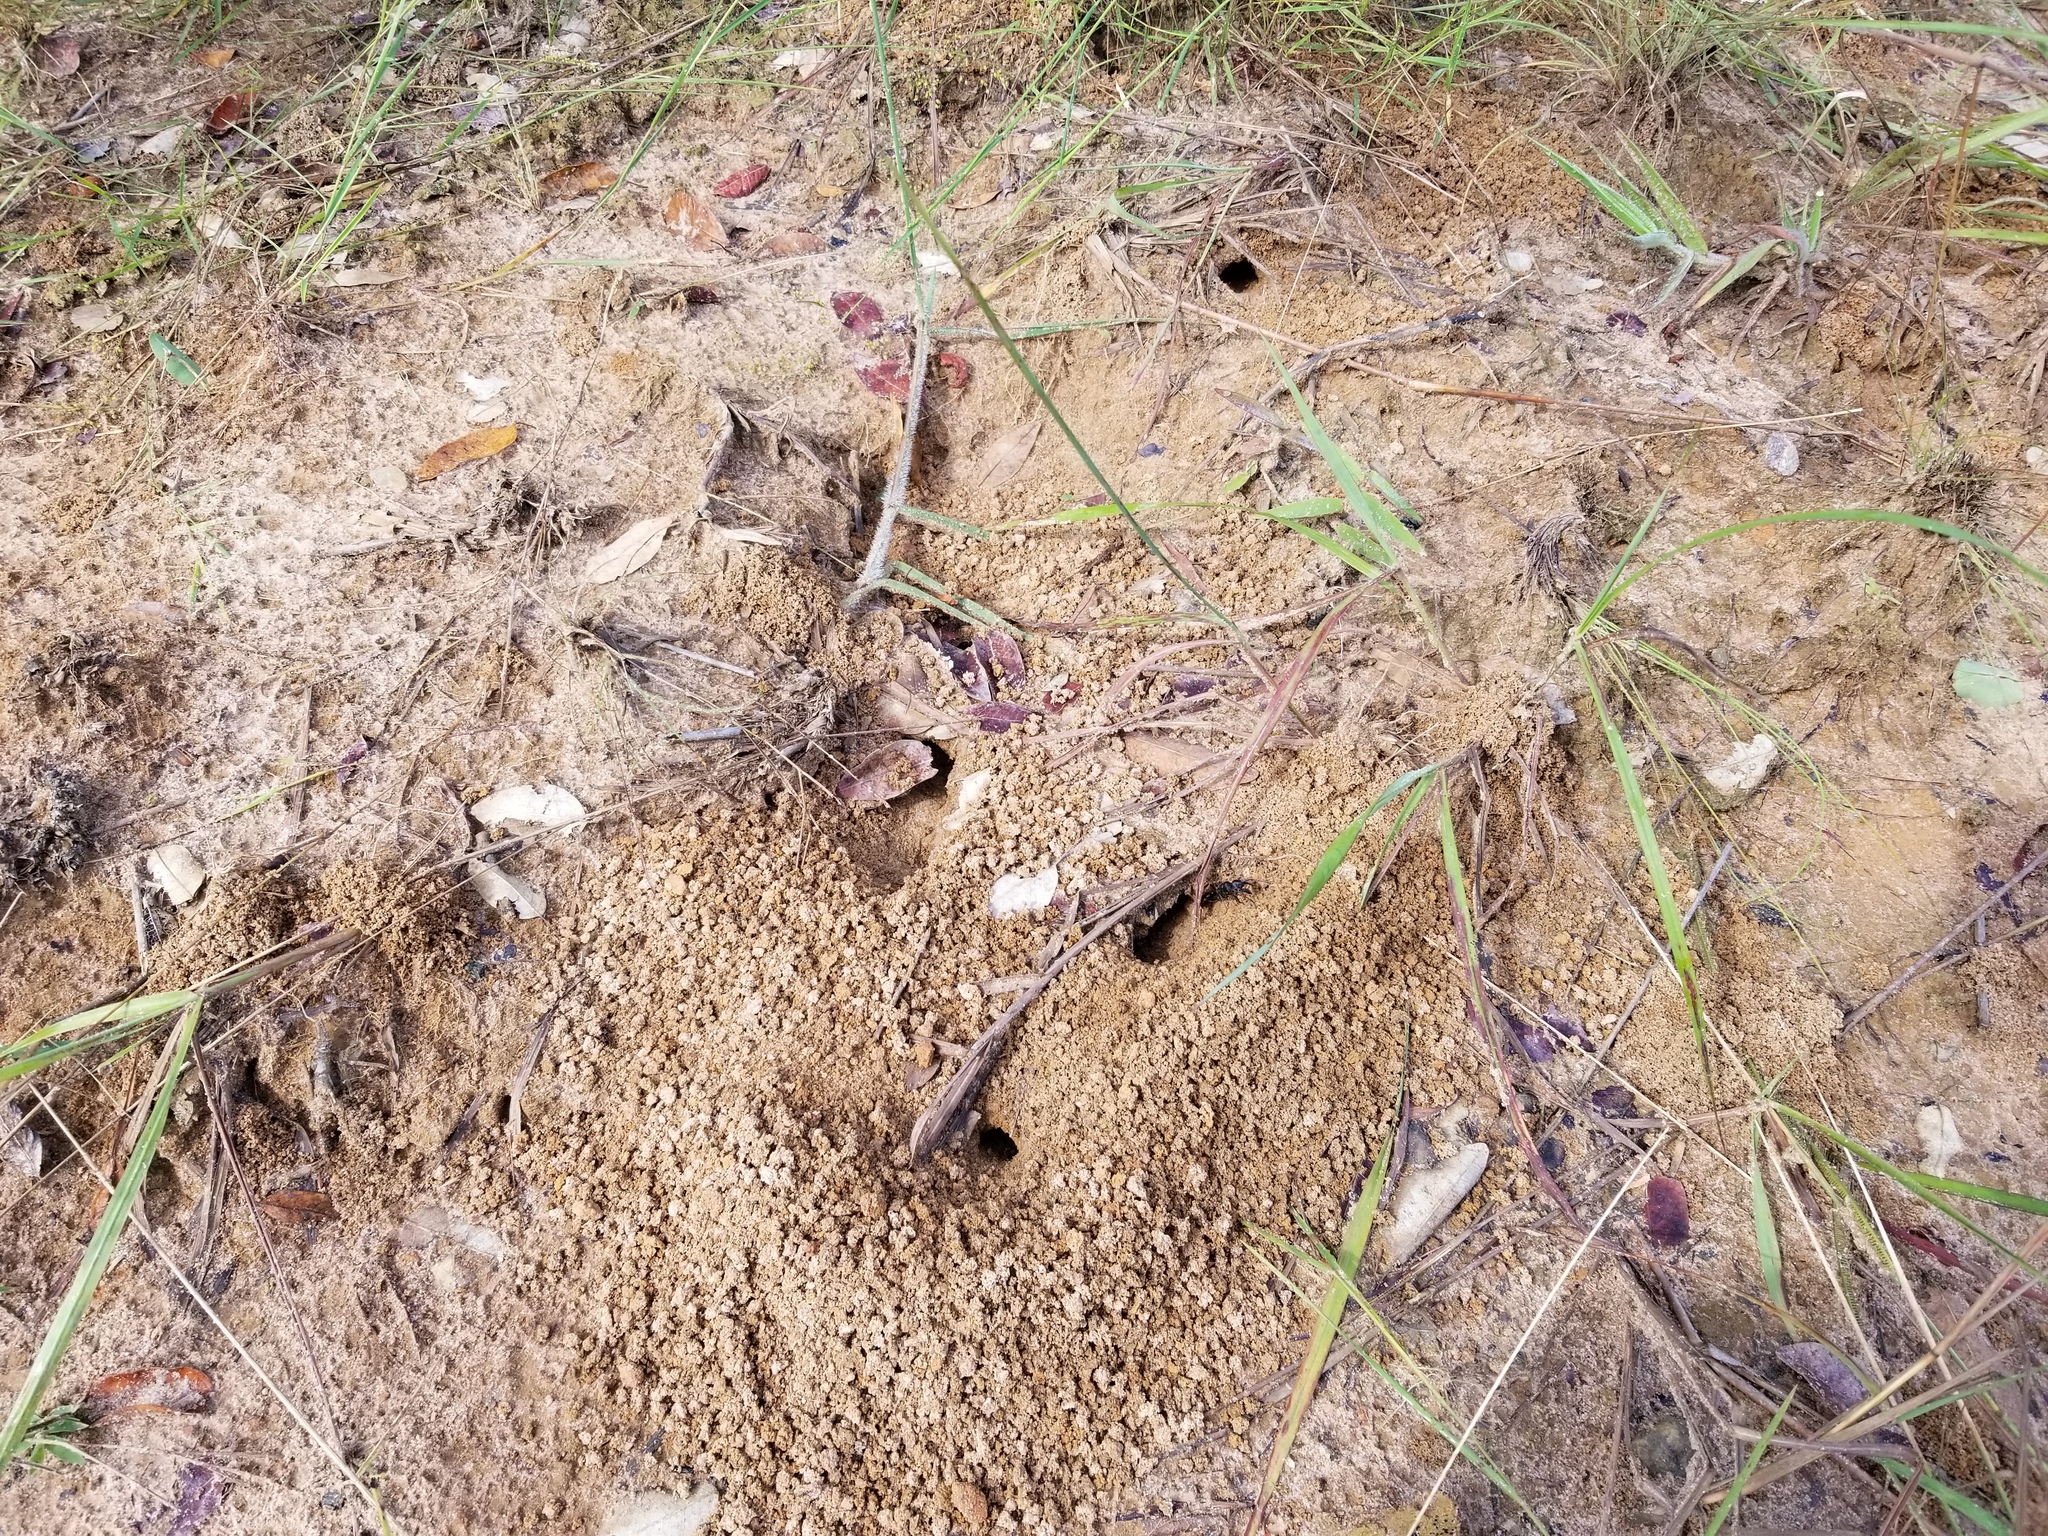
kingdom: Animalia
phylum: Arthropoda
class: Insecta
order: Hymenoptera
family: Formicidae
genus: Paltothyreus
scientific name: Paltothyreus tarsatus
